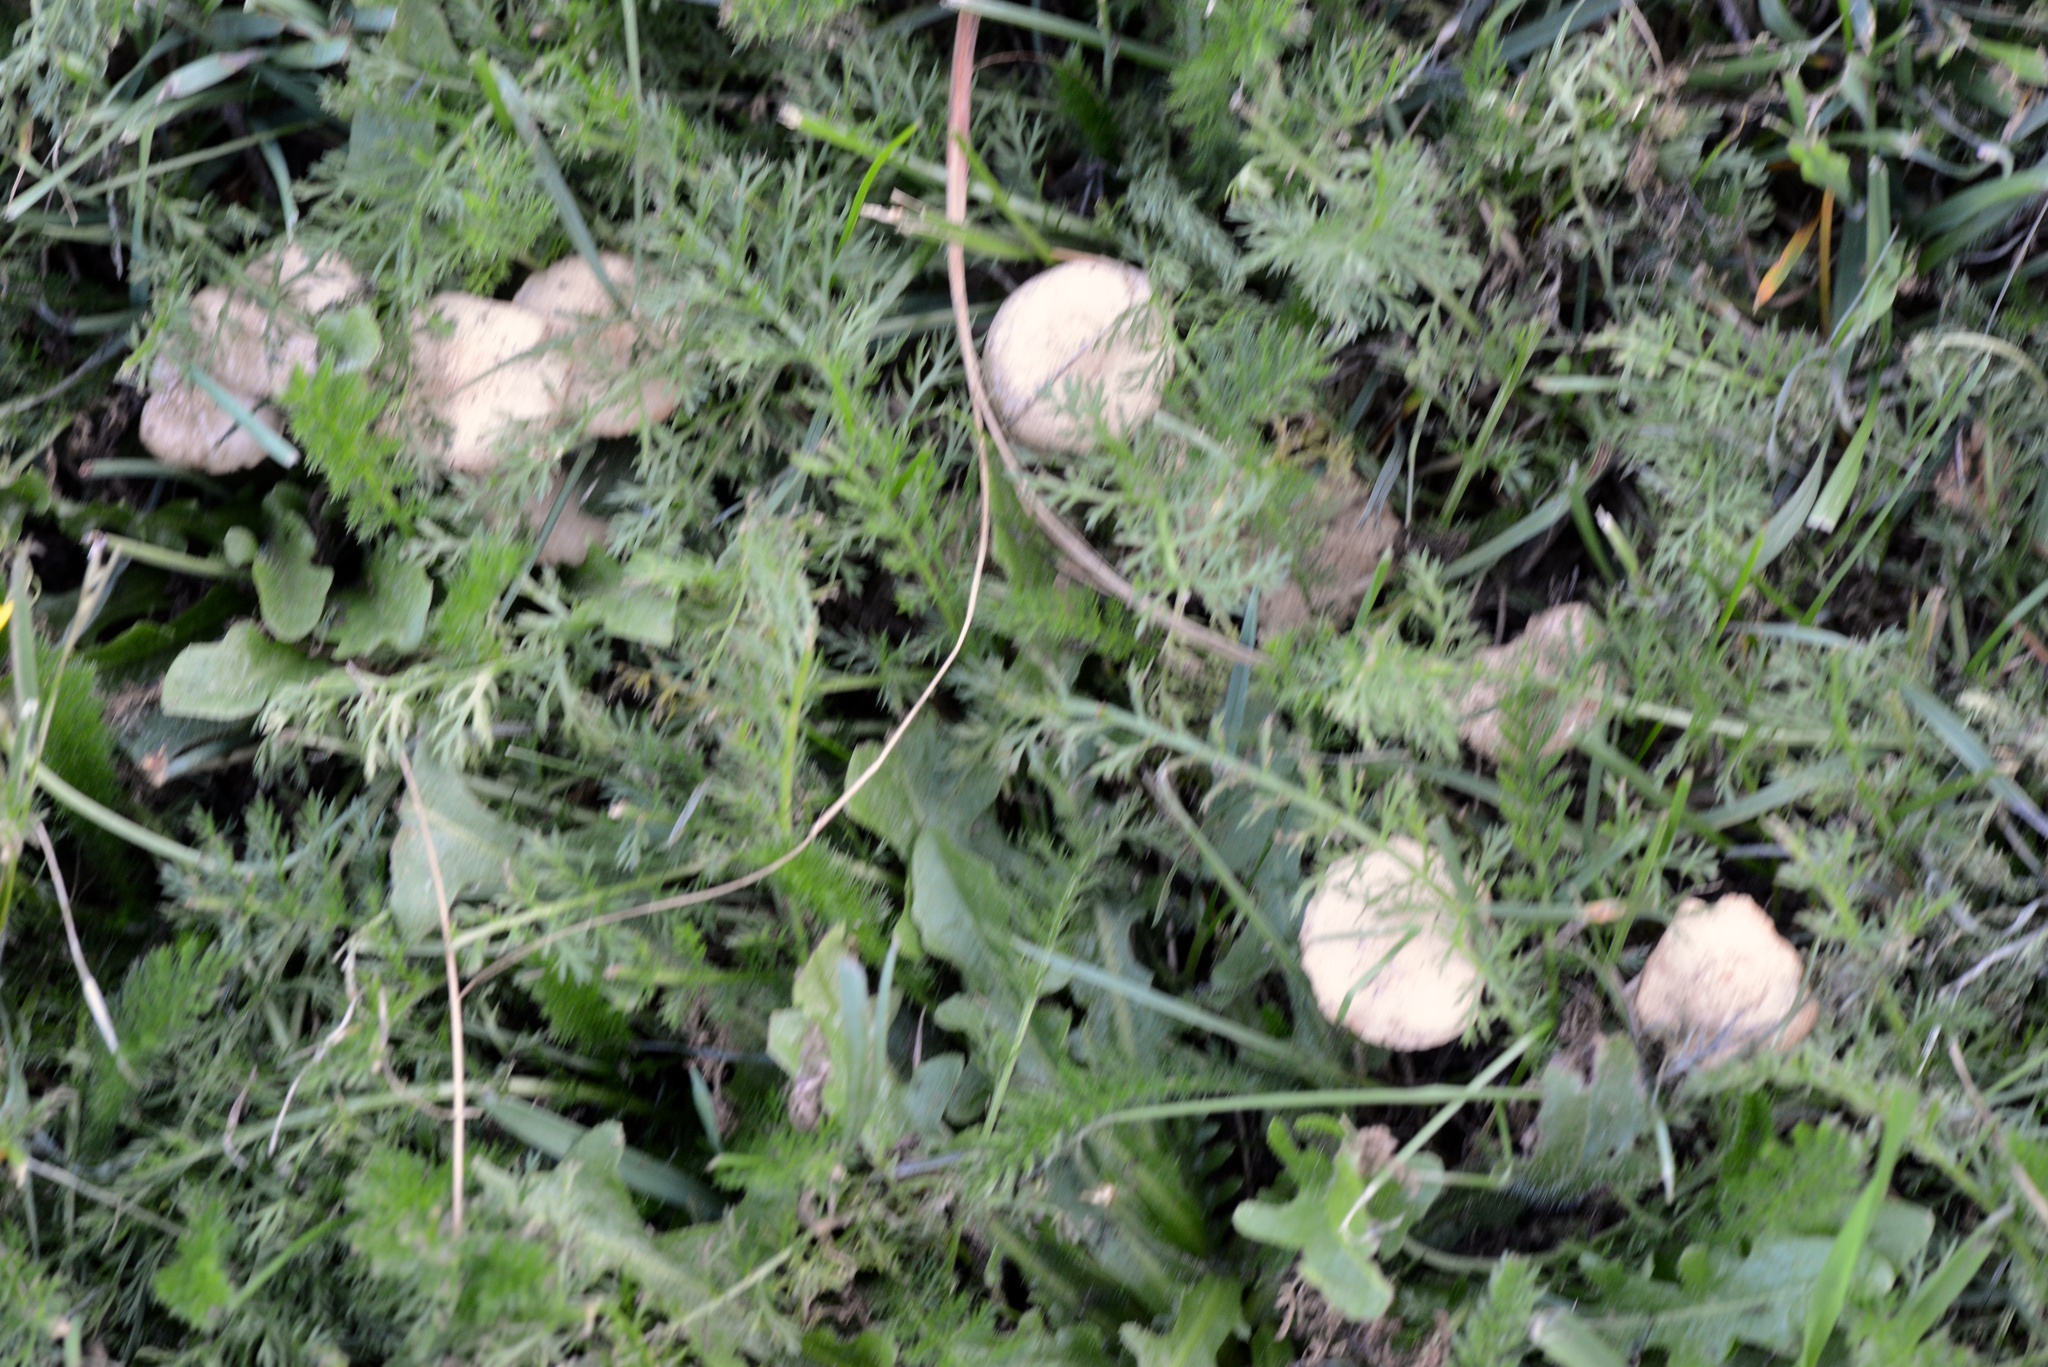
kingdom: Fungi
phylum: Basidiomycota
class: Agaricomycetes
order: Agaricales
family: Marasmiaceae
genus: Marasmius
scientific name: Marasmius oreades
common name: Fairy ring champignon
